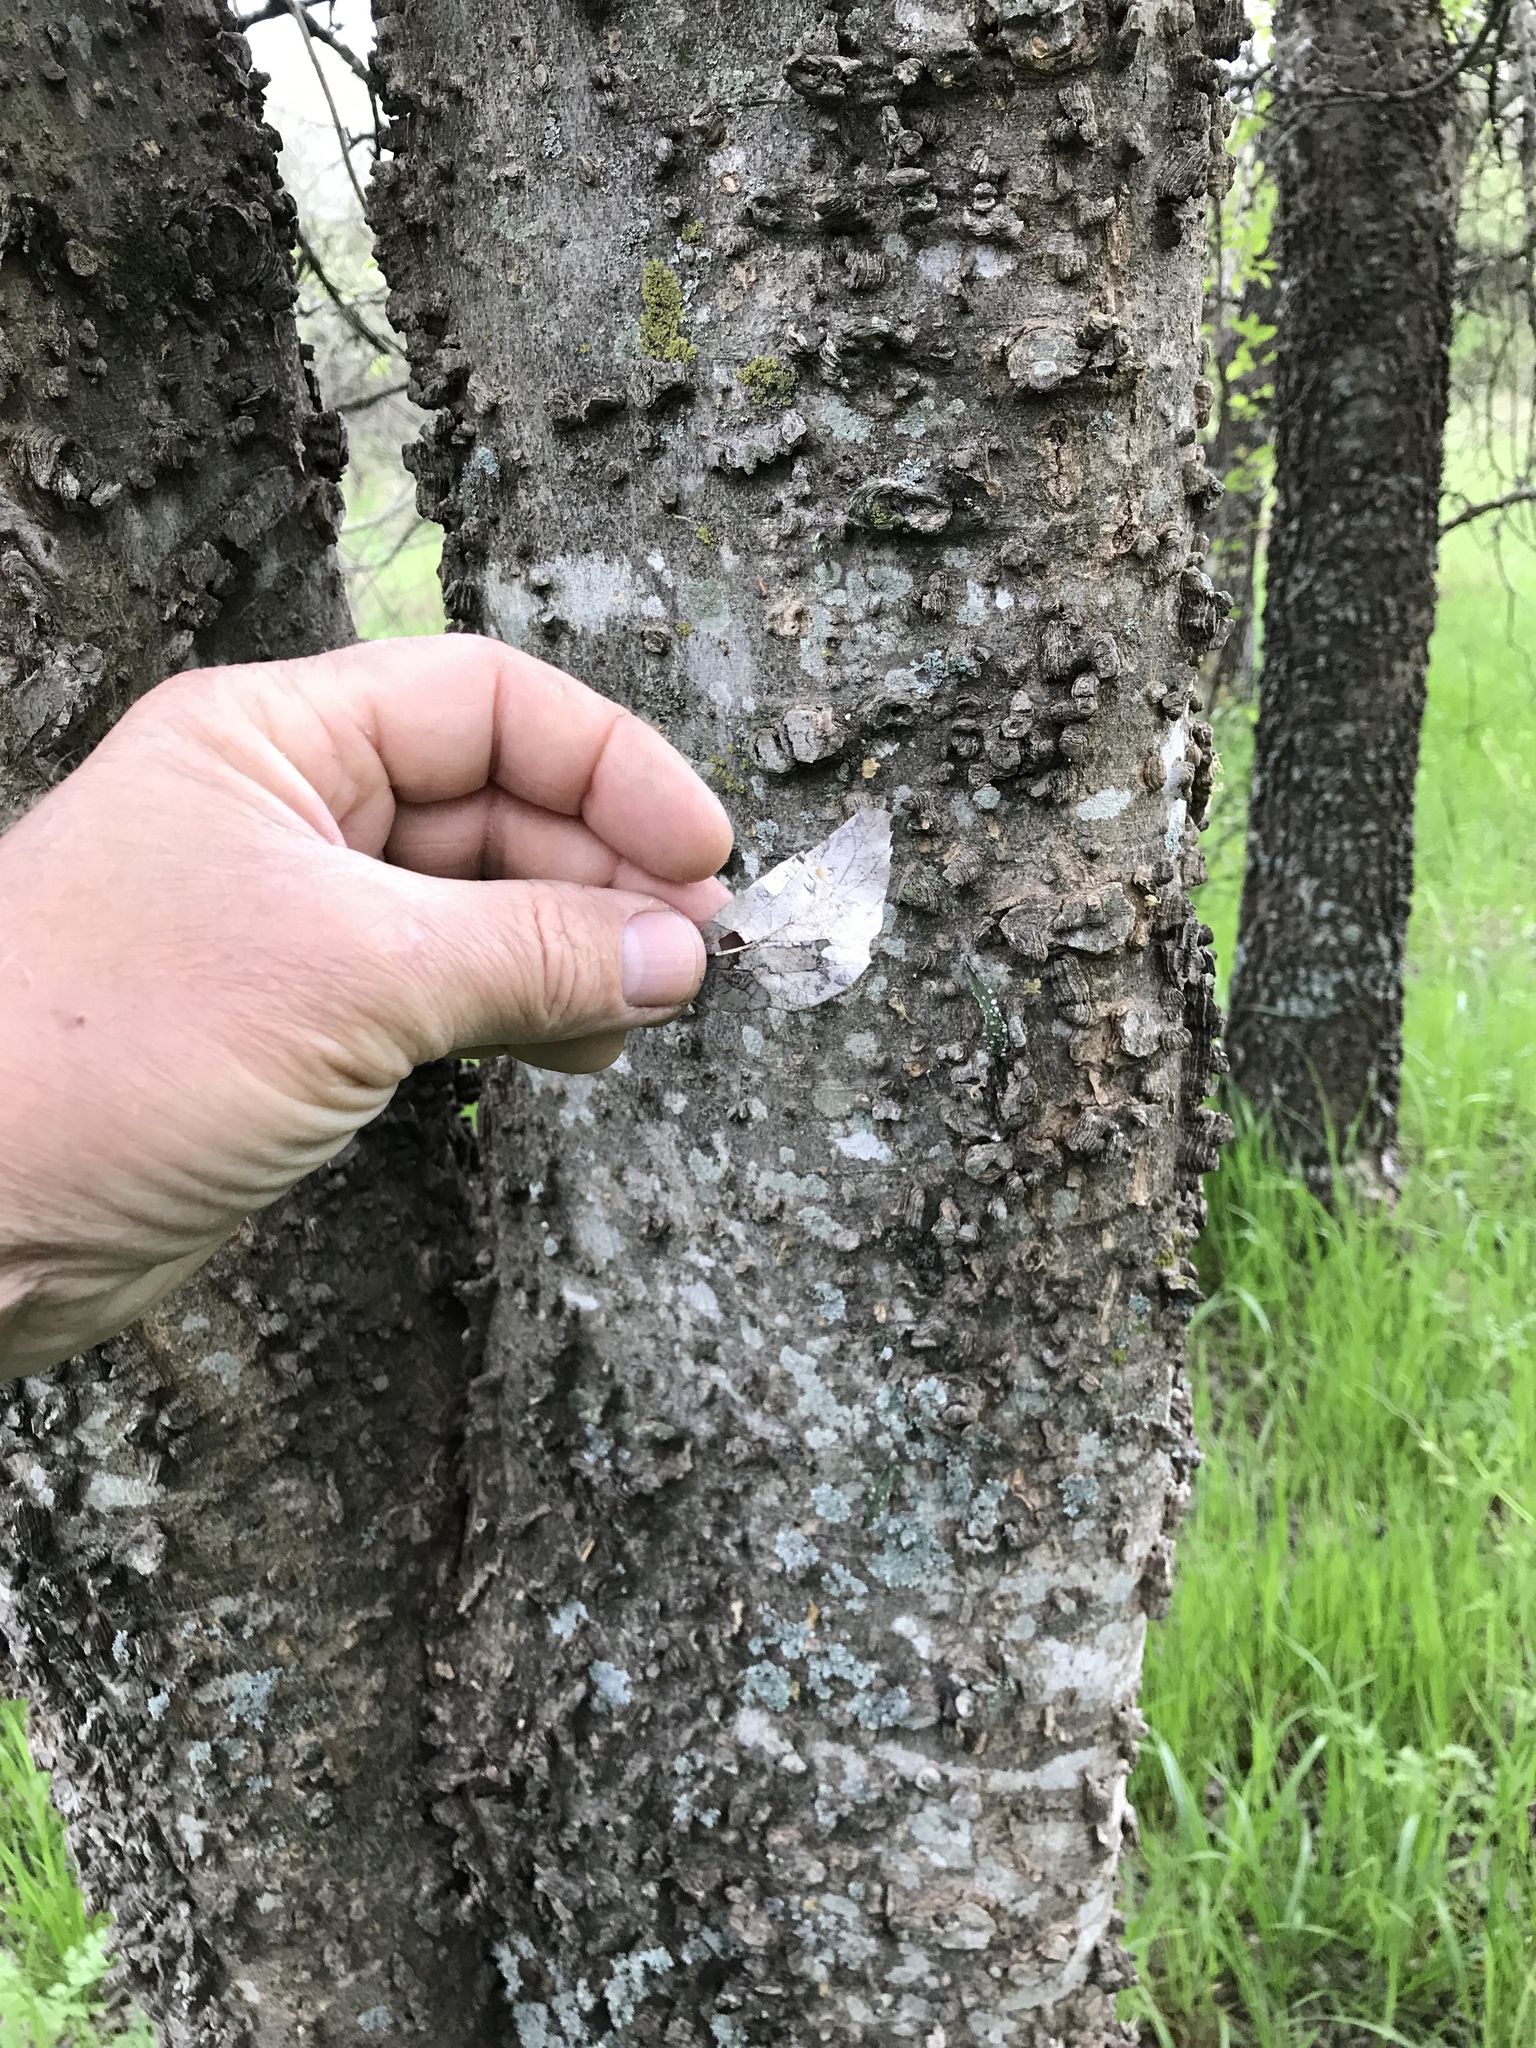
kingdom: Plantae
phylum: Tracheophyta
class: Magnoliopsida
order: Rosales
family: Cannabaceae
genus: Celtis
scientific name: Celtis laevigata
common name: Sugarberry
